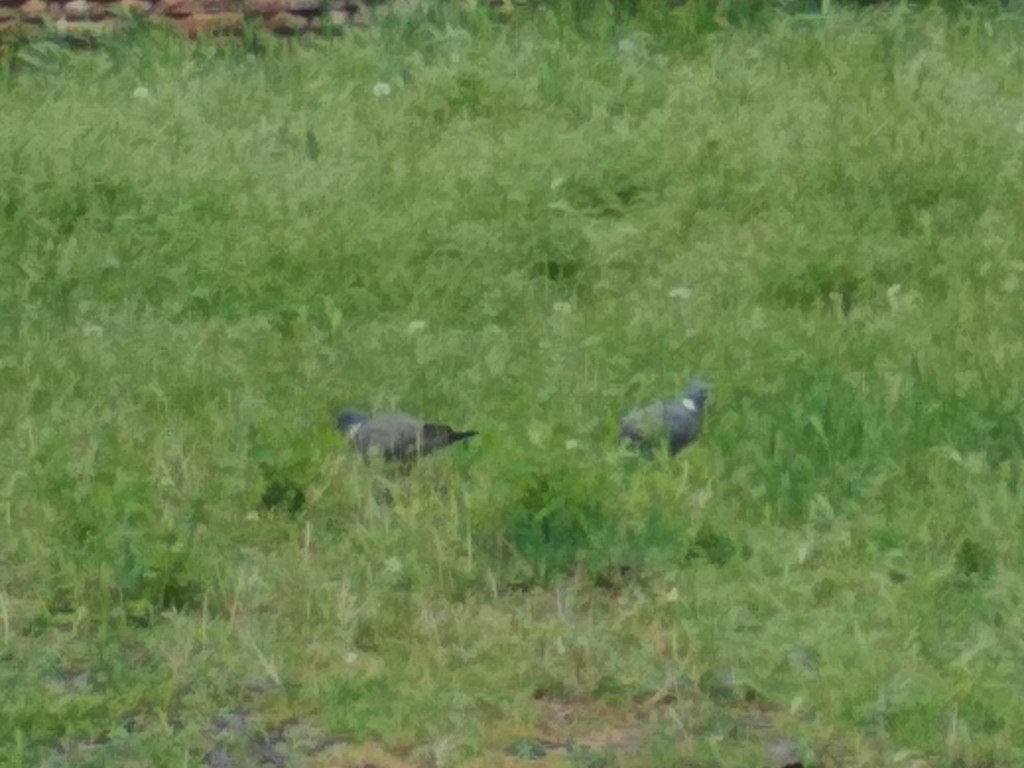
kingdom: Animalia
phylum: Chordata
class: Aves
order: Columbiformes
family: Columbidae
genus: Columba
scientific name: Columba palumbus
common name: Common wood pigeon
